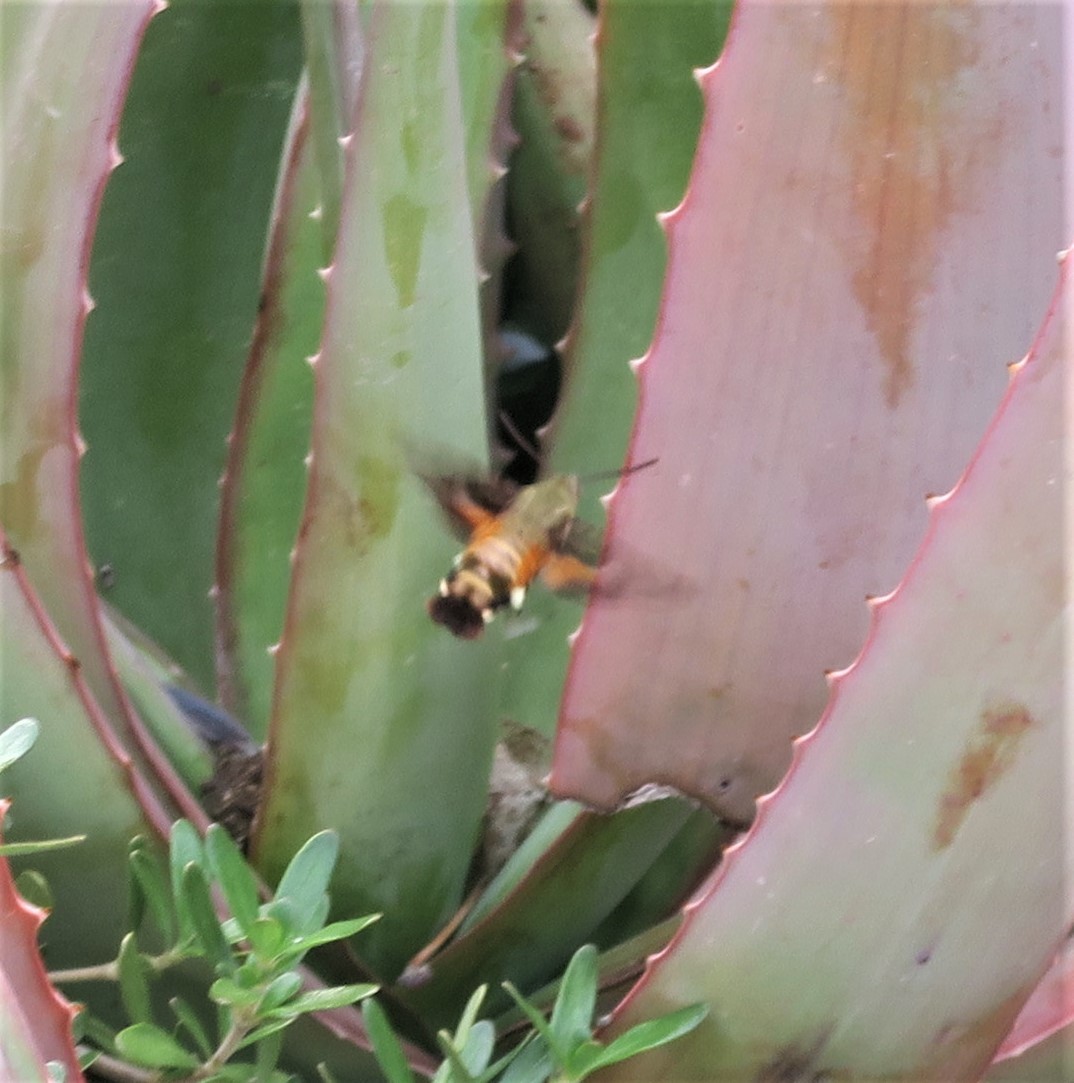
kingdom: Animalia
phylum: Arthropoda
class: Insecta
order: Lepidoptera
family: Sphingidae
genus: Macroglossum
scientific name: Macroglossum trochilus
